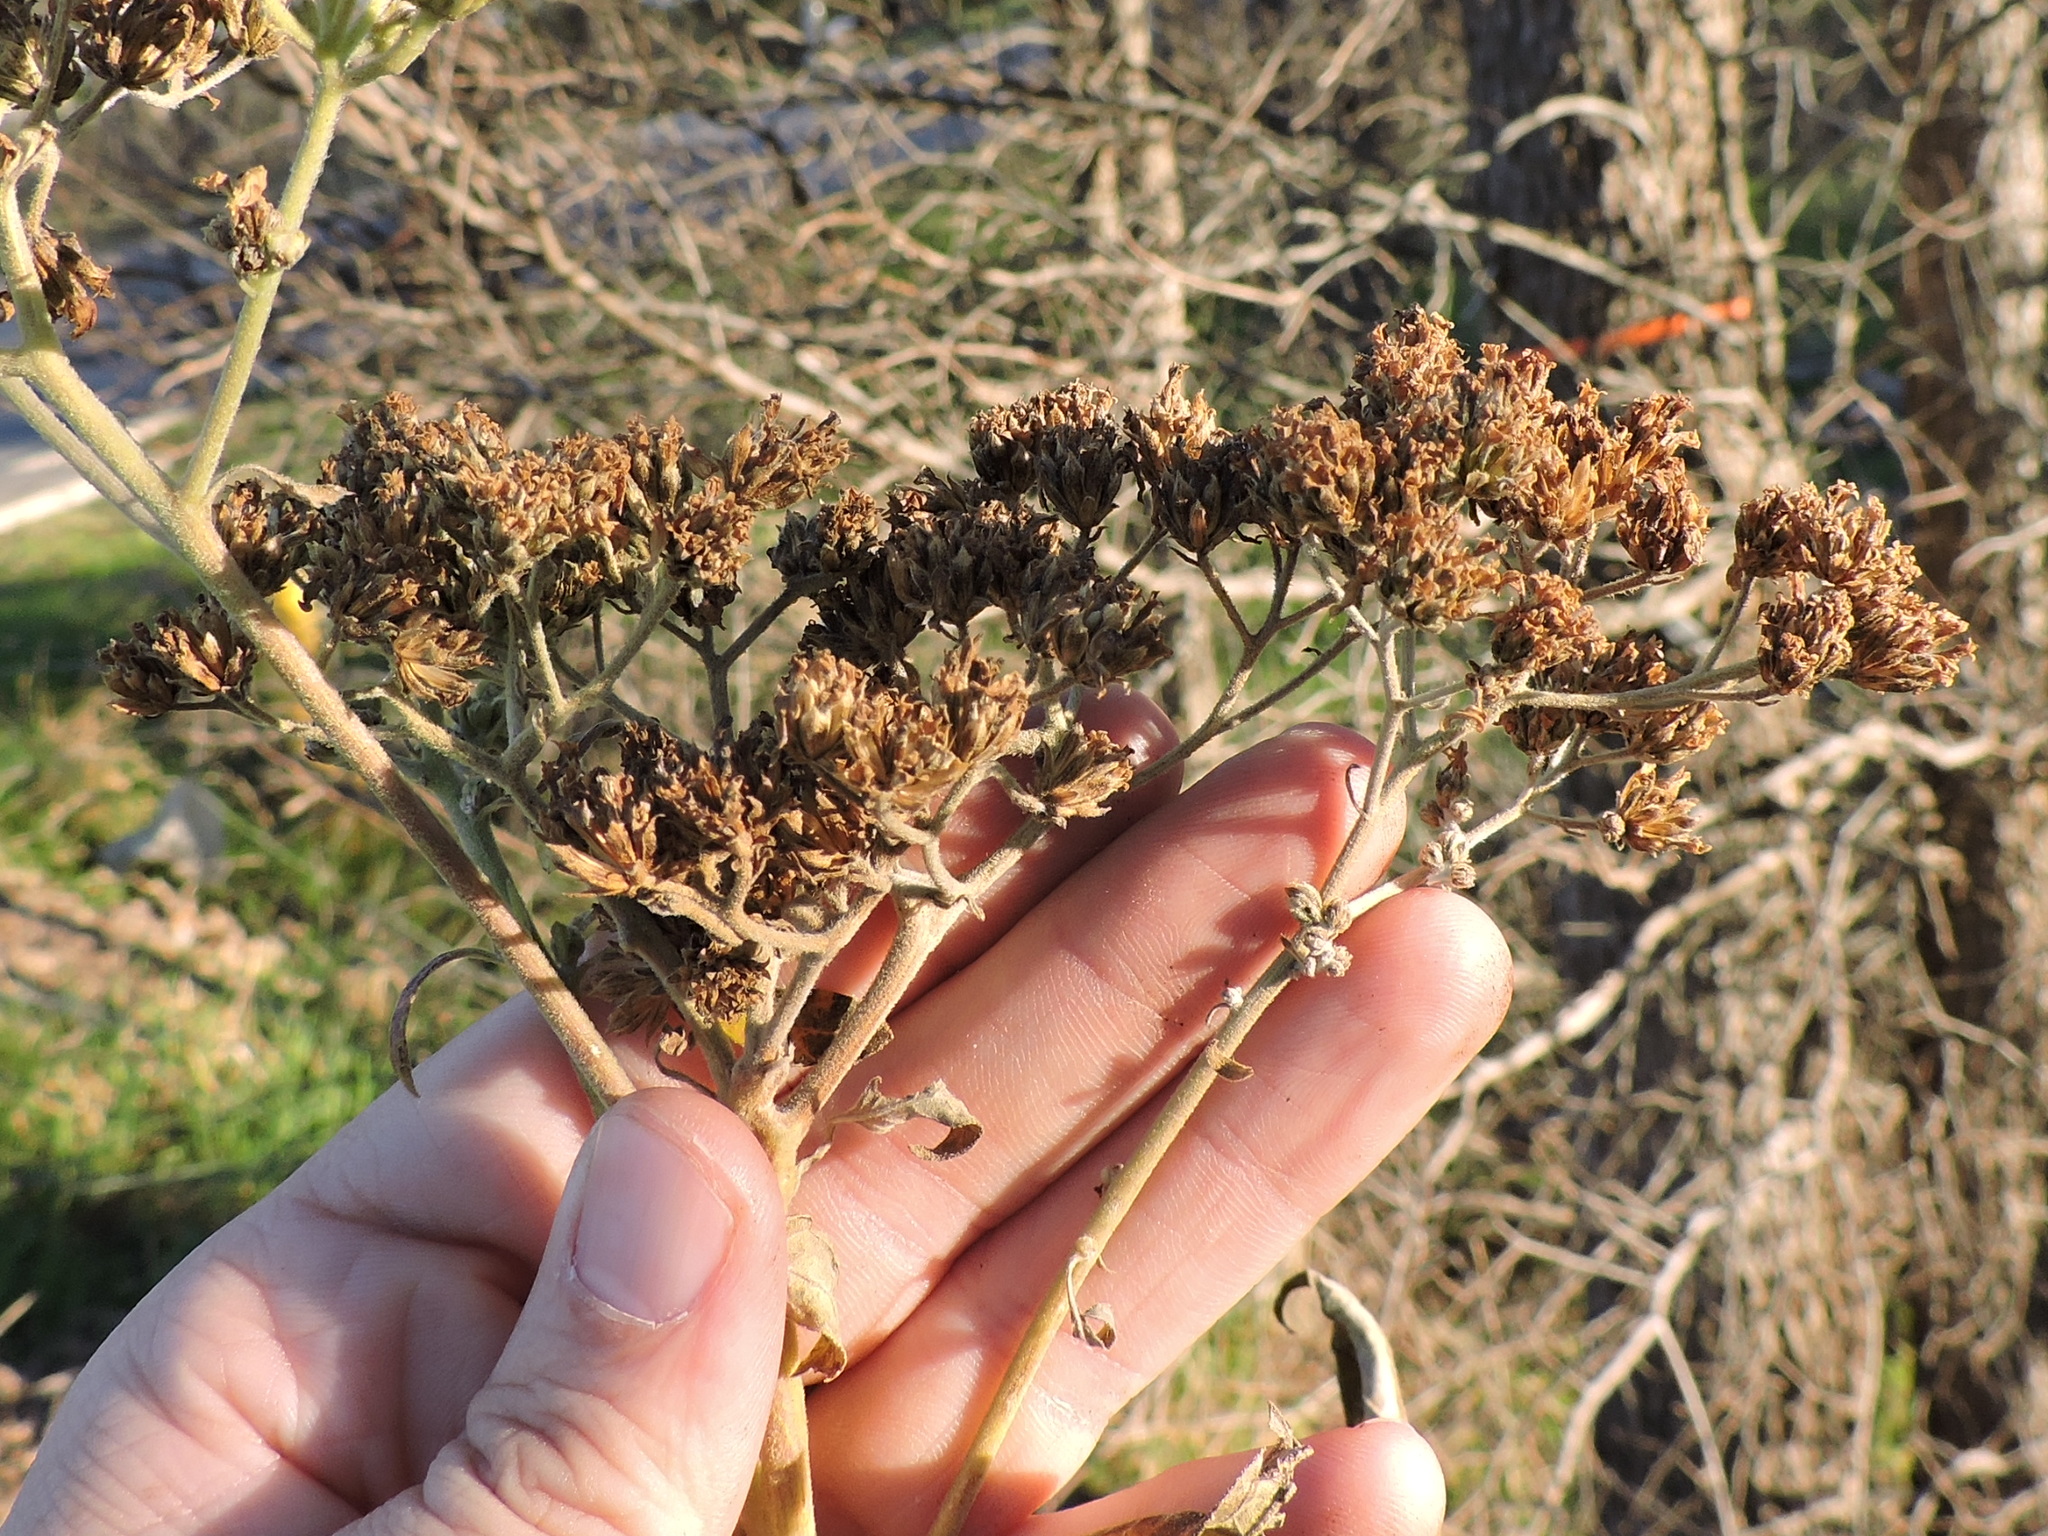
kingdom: Plantae
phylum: Tracheophyta
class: Magnoliopsida
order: Asterales
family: Asteraceae
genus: Verbesina
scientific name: Verbesina virginica
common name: Frostweed
